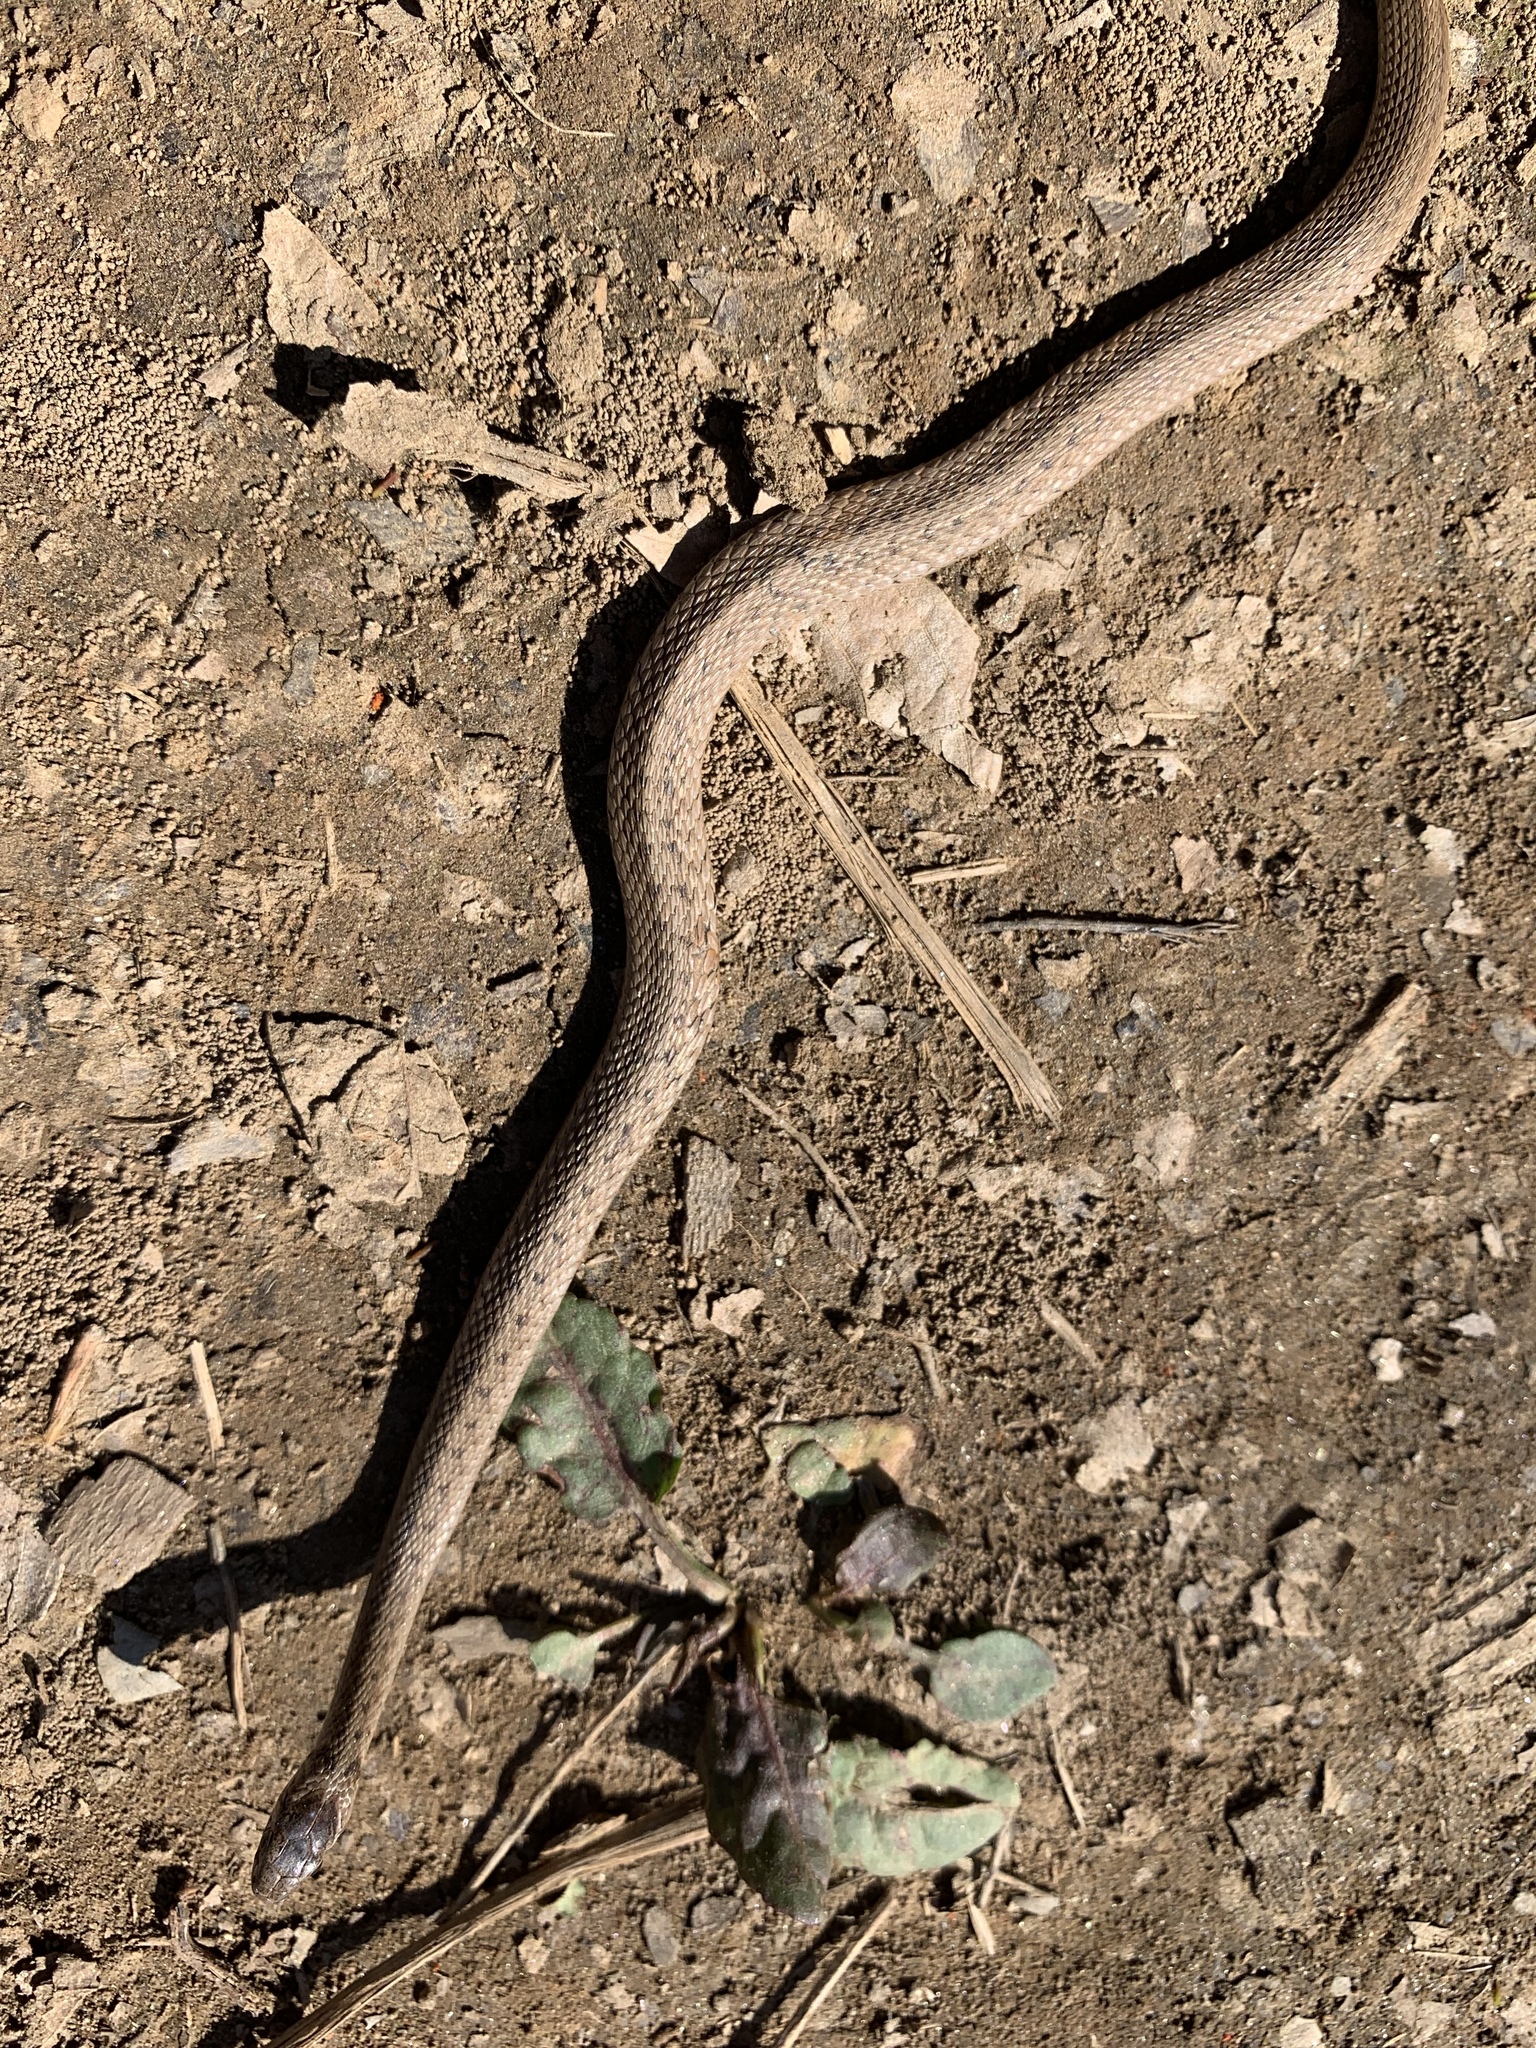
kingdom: Animalia
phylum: Chordata
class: Squamata
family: Colubridae
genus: Storeria
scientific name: Storeria dekayi
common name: (dekay’s) brown snake
